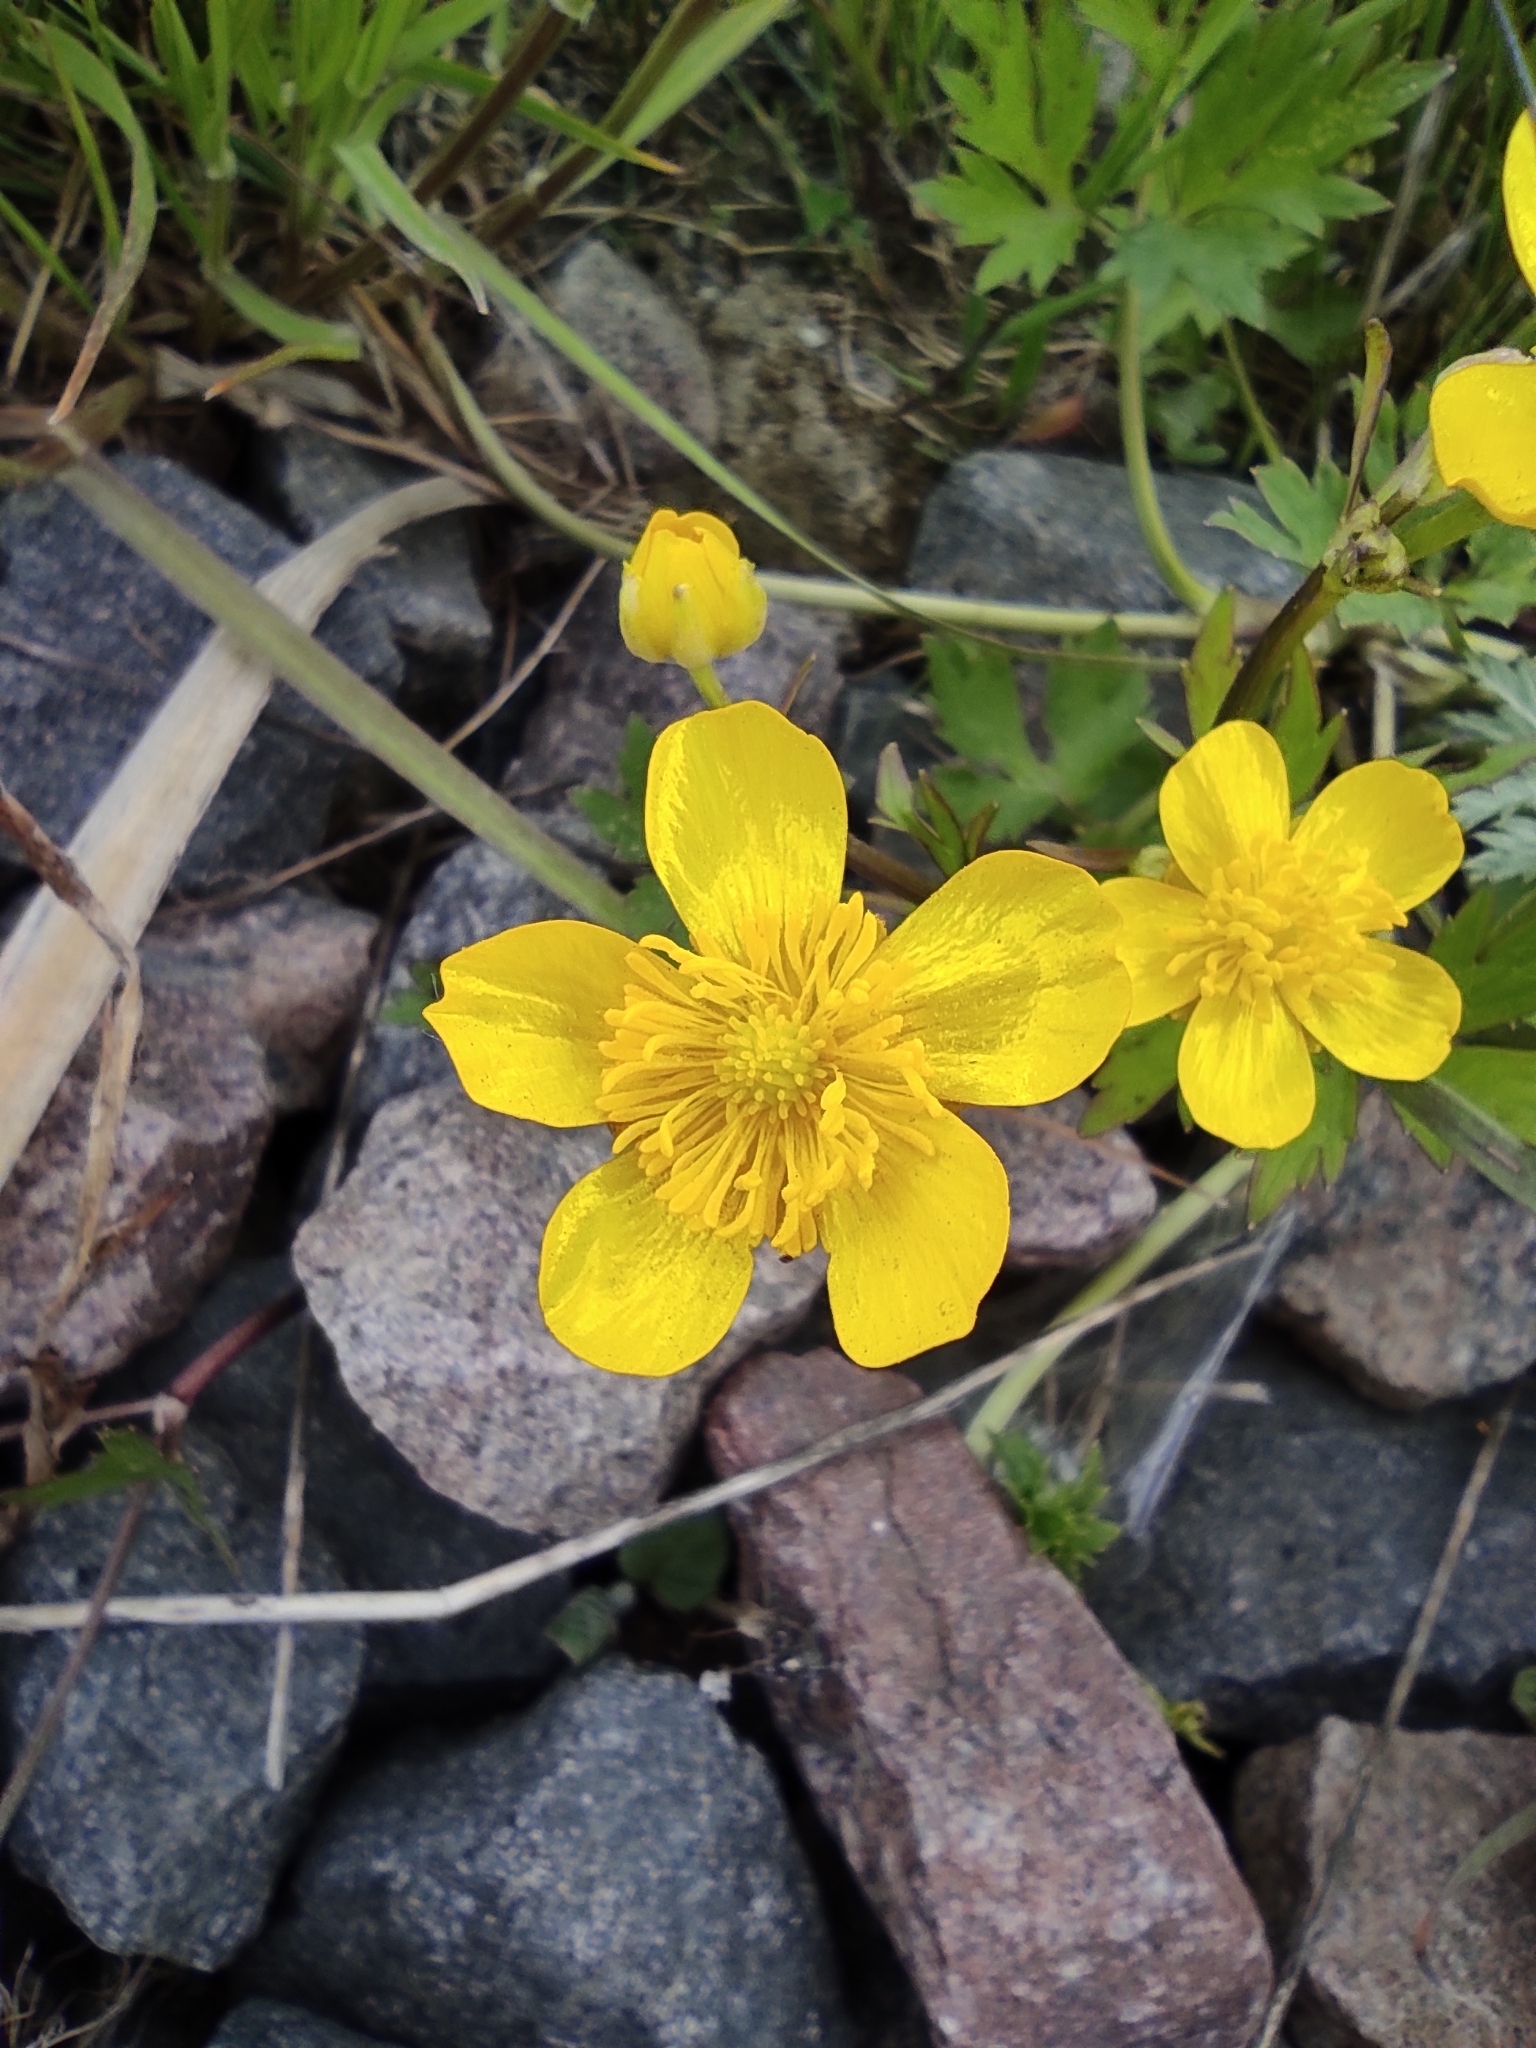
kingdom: Plantae
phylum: Tracheophyta
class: Magnoliopsida
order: Ranunculales
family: Ranunculaceae
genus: Ranunculus
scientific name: Ranunculus repens
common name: Creeping buttercup
